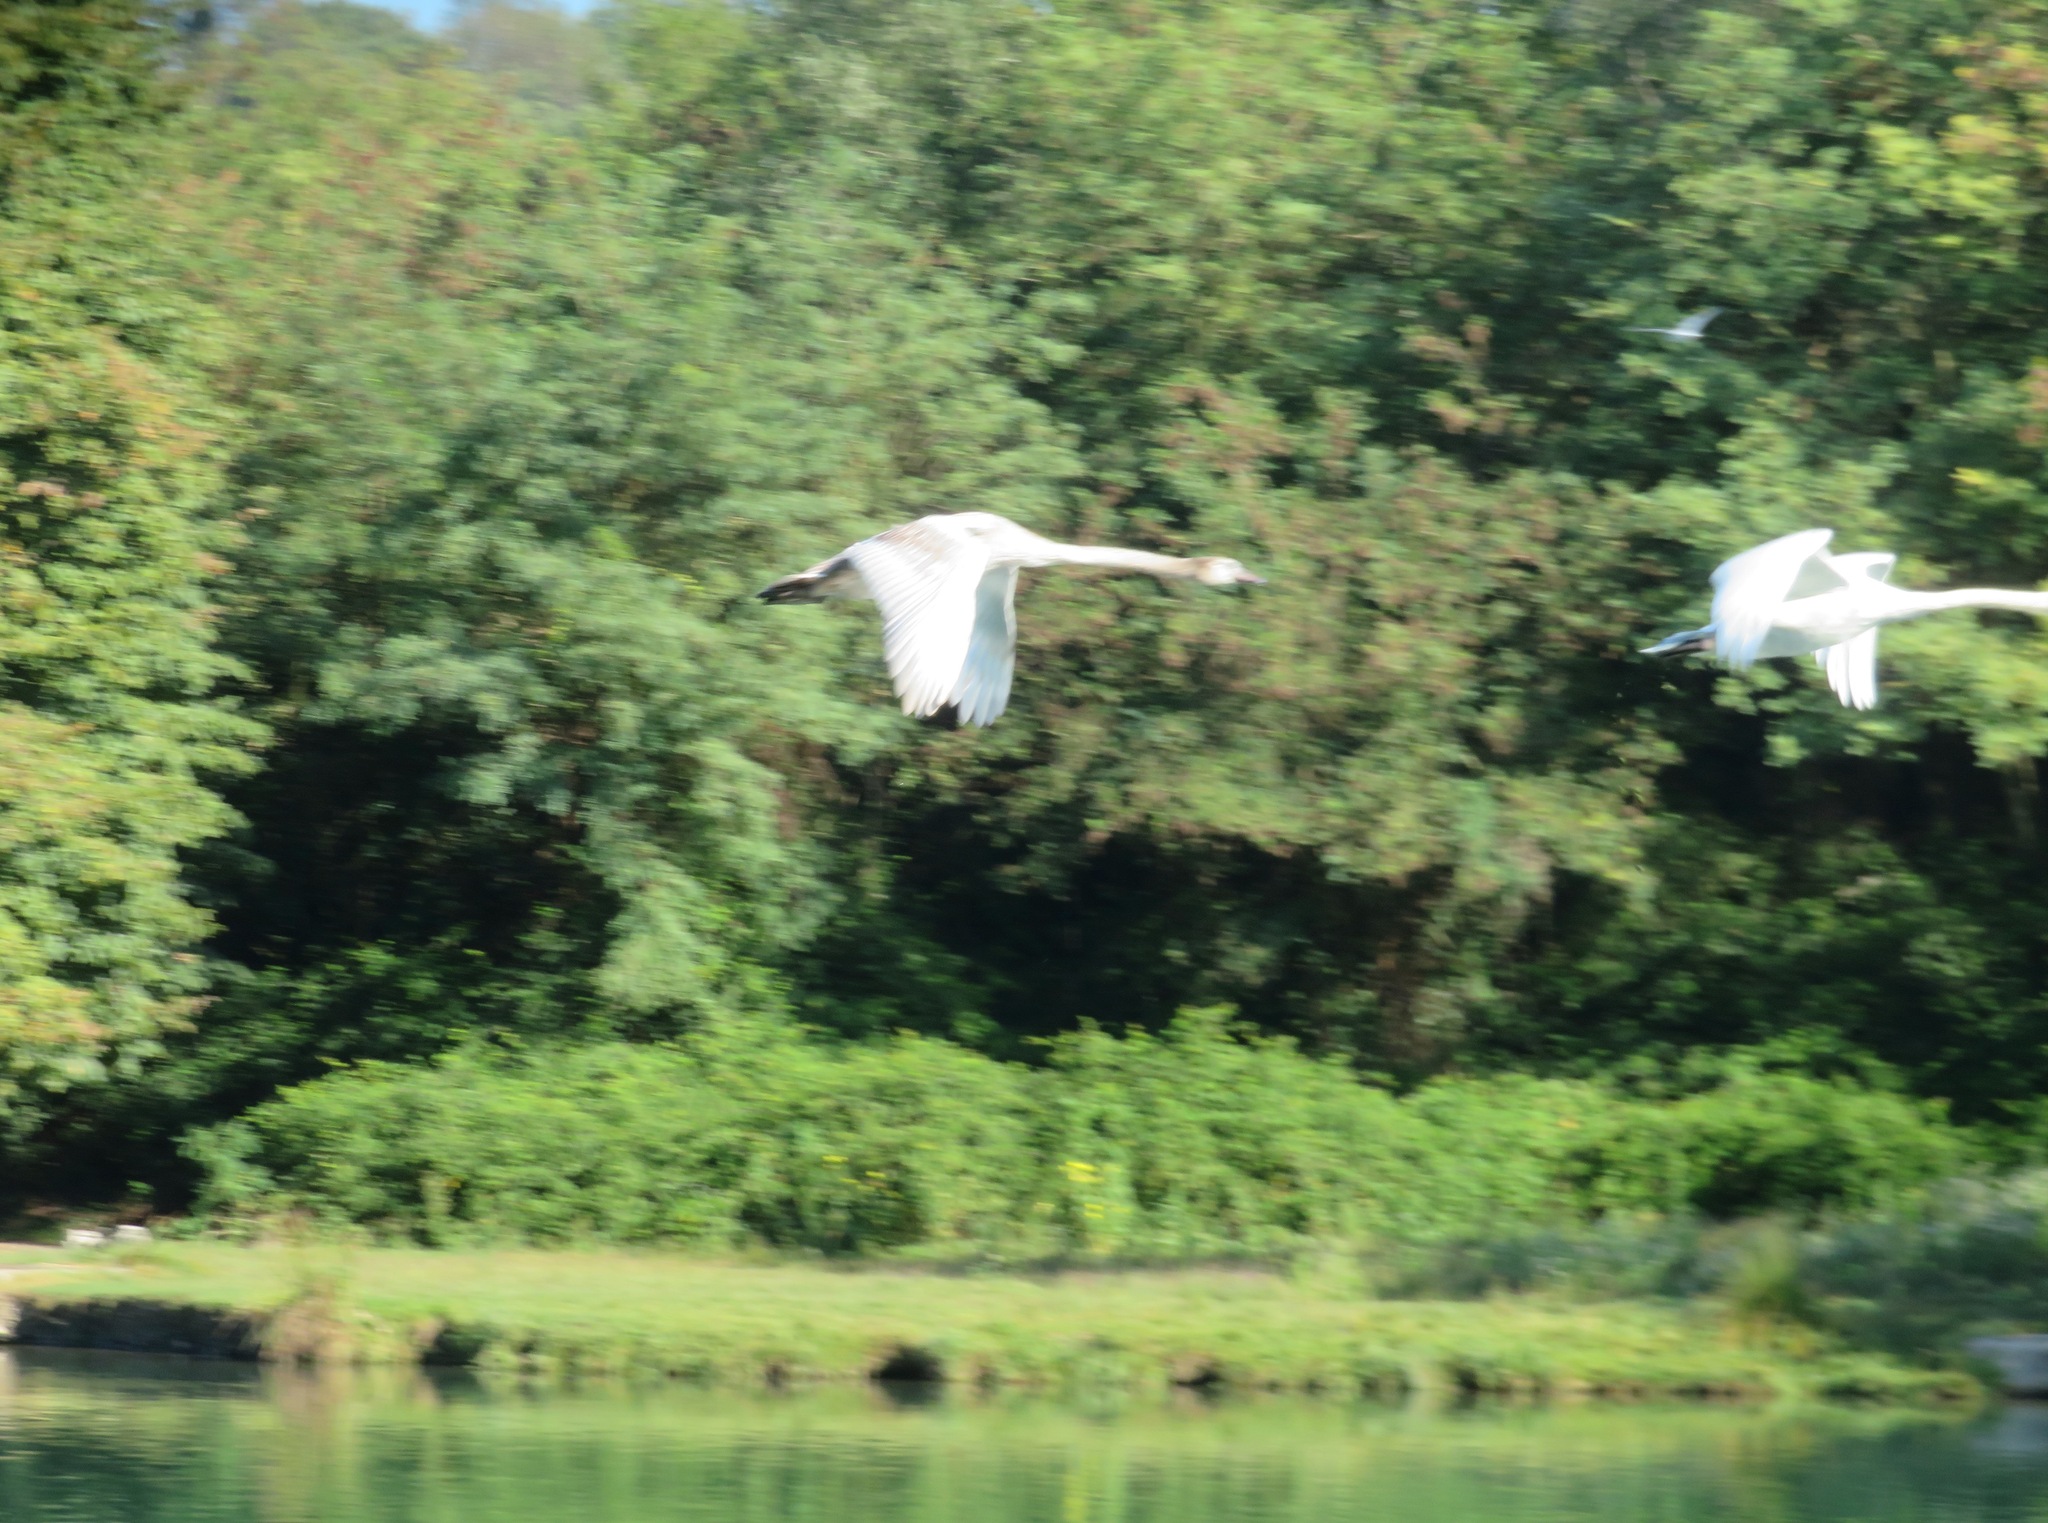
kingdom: Animalia
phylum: Chordata
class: Aves
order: Anseriformes
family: Anatidae
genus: Cygnus
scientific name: Cygnus olor
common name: Mute swan
